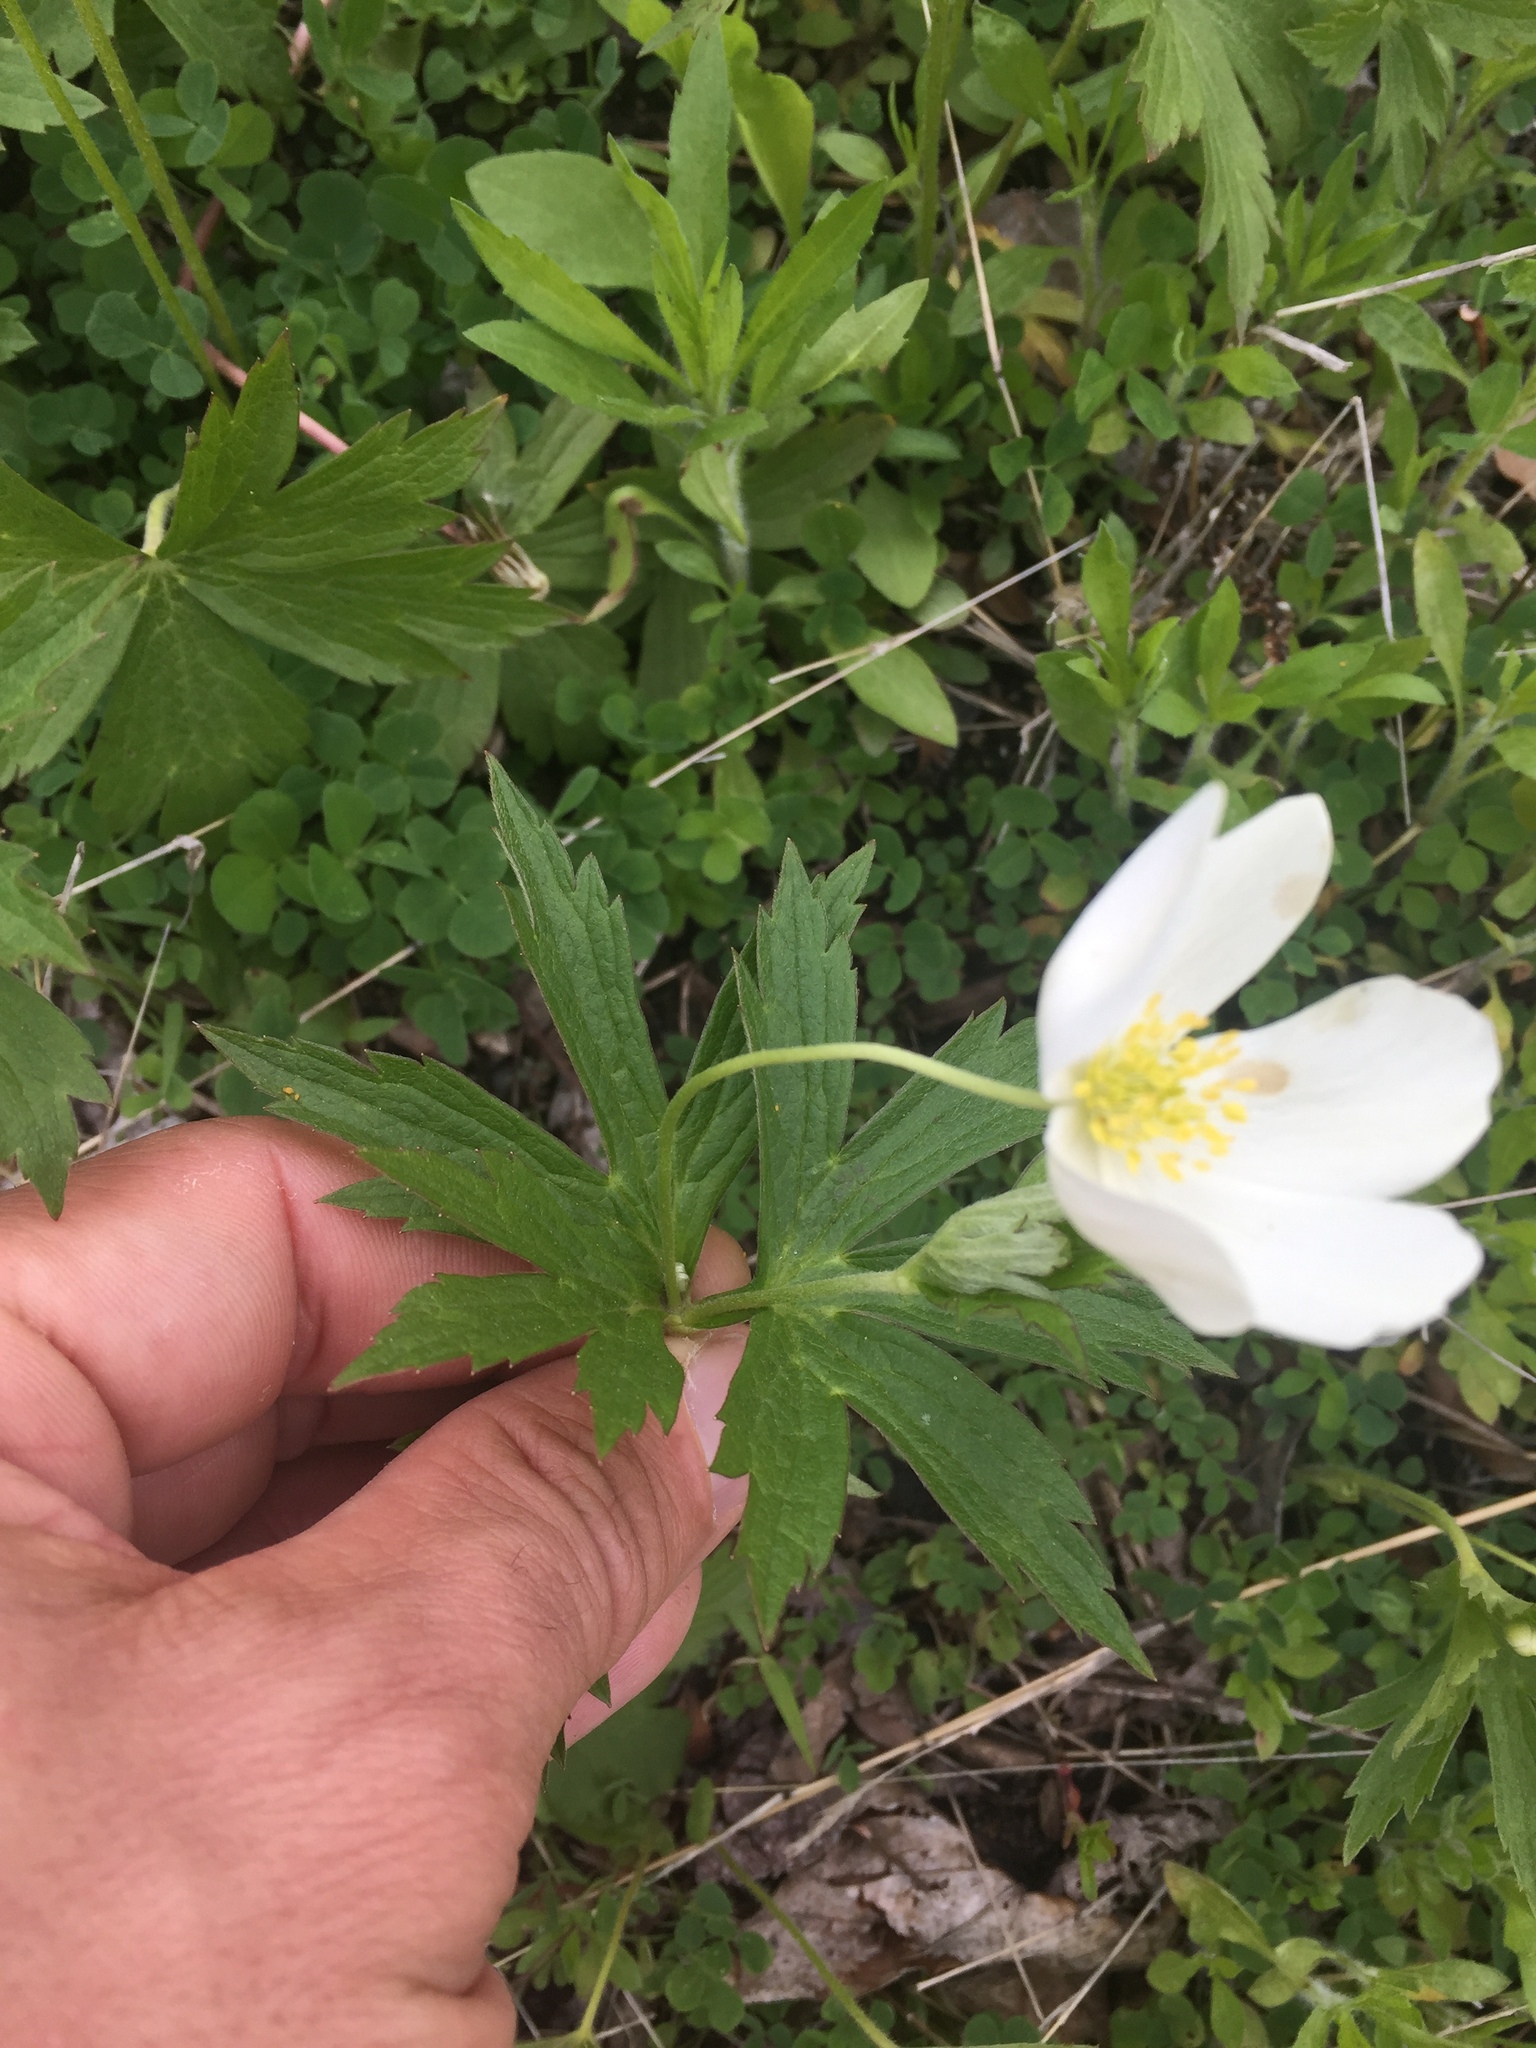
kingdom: Plantae
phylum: Tracheophyta
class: Magnoliopsida
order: Ranunculales
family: Ranunculaceae
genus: Anemonastrum
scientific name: Anemonastrum canadense
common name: Canada anemone
